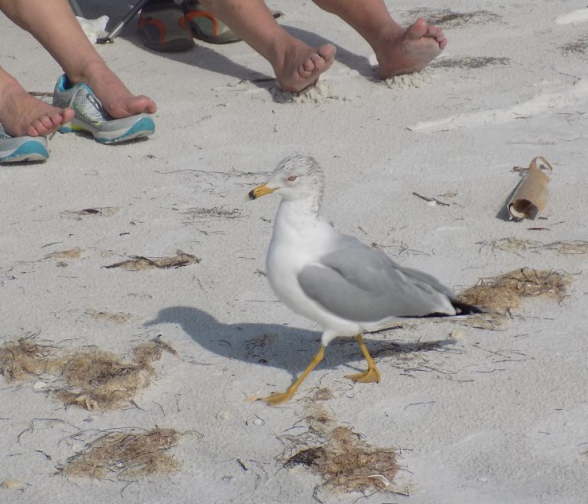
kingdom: Animalia
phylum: Chordata
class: Aves
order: Charadriiformes
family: Laridae
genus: Larus
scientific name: Larus delawarensis
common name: Ring-billed gull
